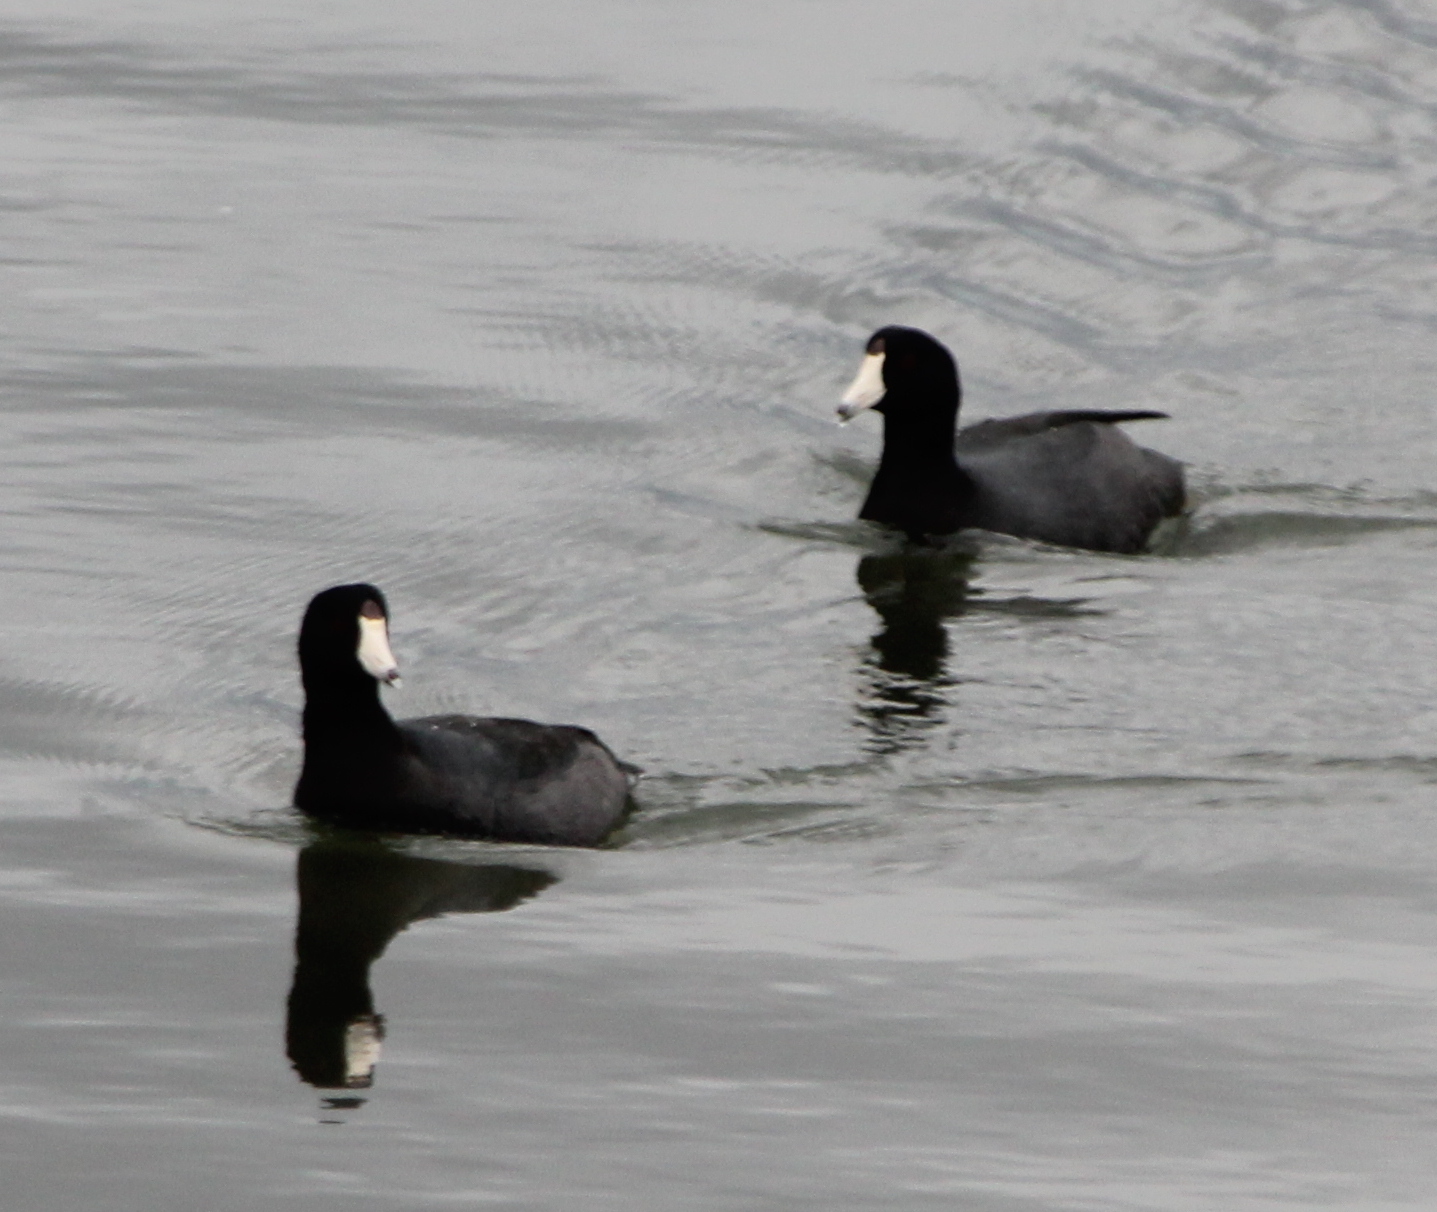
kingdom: Animalia
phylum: Chordata
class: Aves
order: Gruiformes
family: Rallidae
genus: Fulica
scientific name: Fulica americana
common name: American coot
